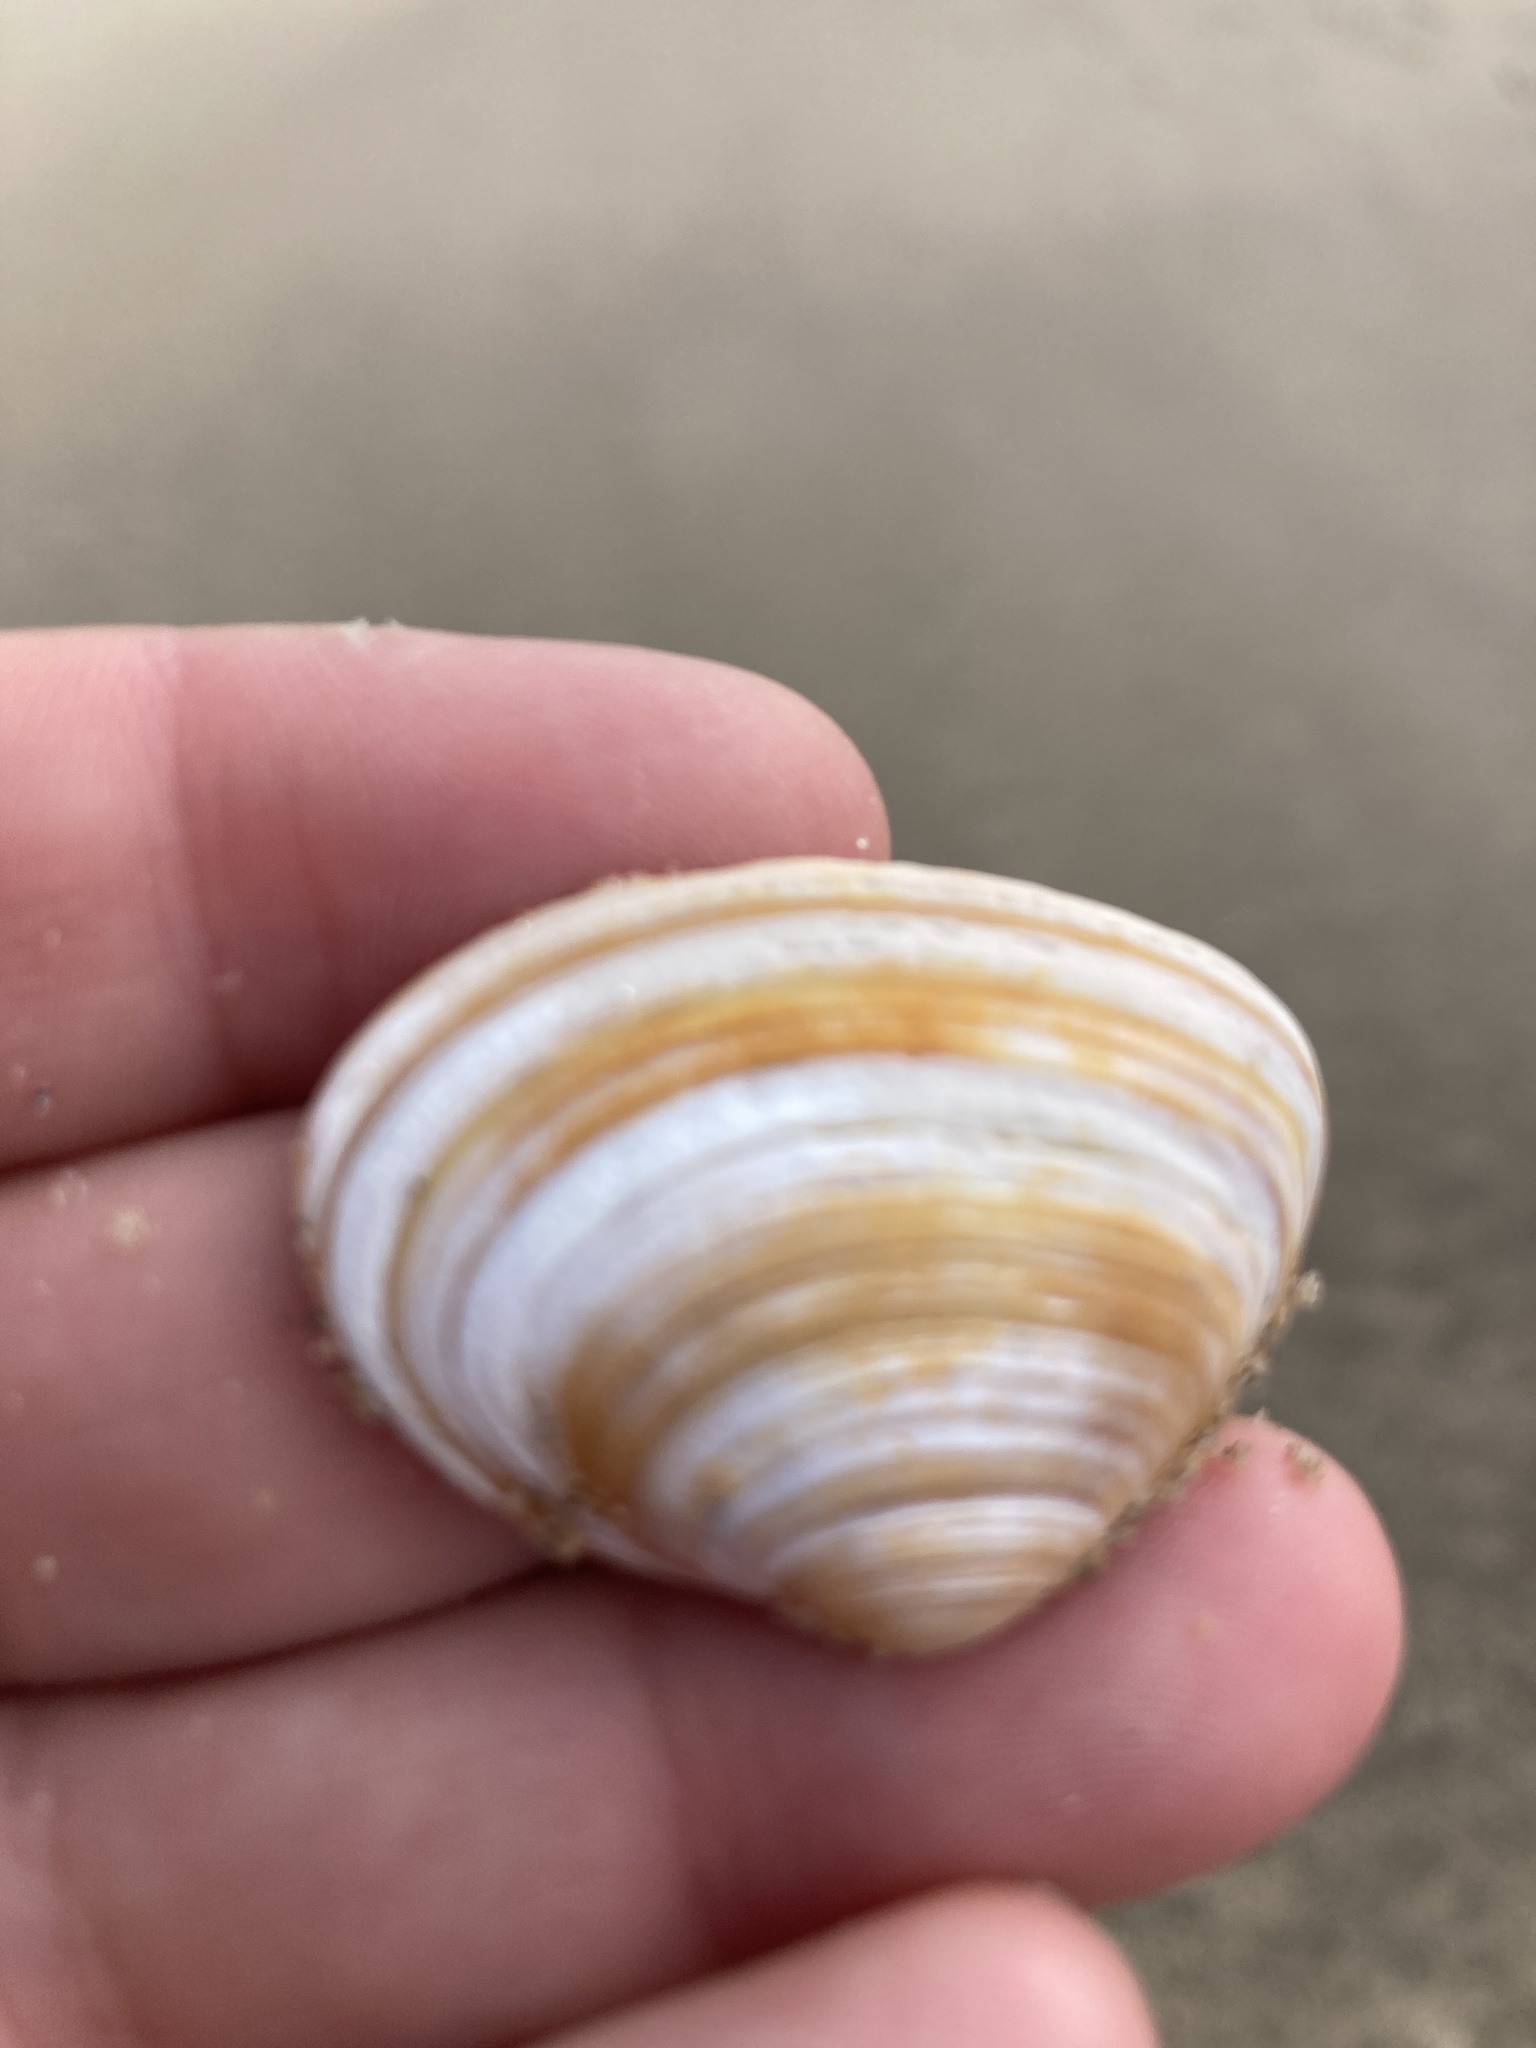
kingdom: Animalia
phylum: Mollusca
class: Bivalvia
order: Venerida
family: Mactridae
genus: Spisula
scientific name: Spisula solida
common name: Thick trough shell
